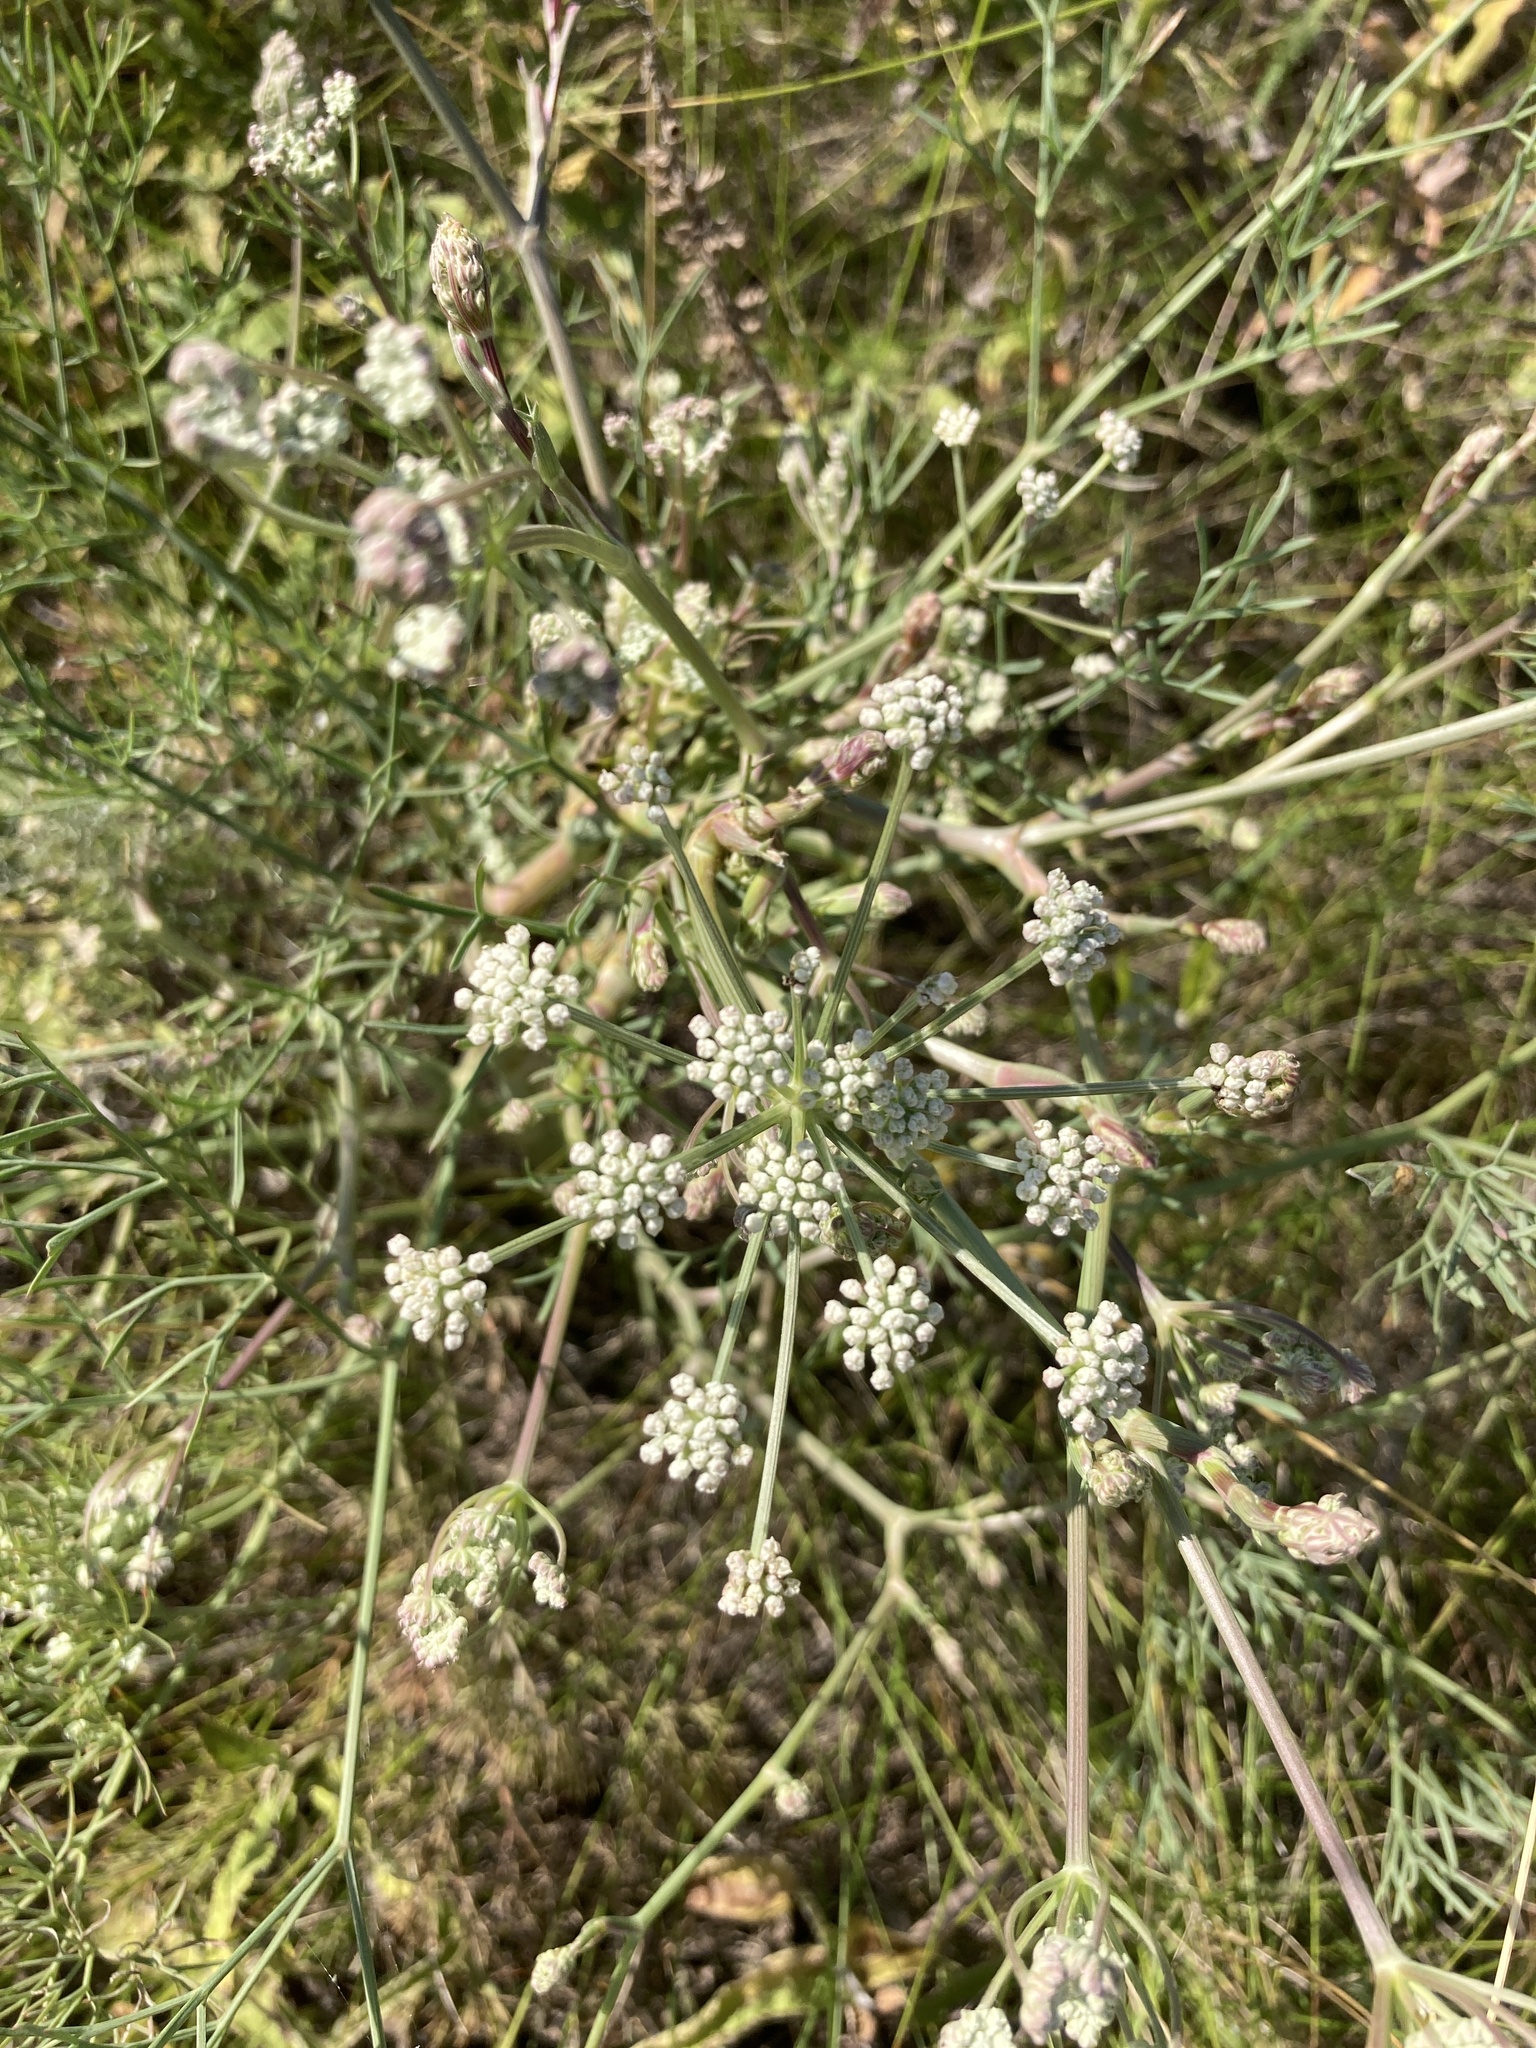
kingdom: Plantae
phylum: Tracheophyta
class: Magnoliopsida
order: Apiales
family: Apiaceae
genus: Seseli
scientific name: Seseli arenarium
